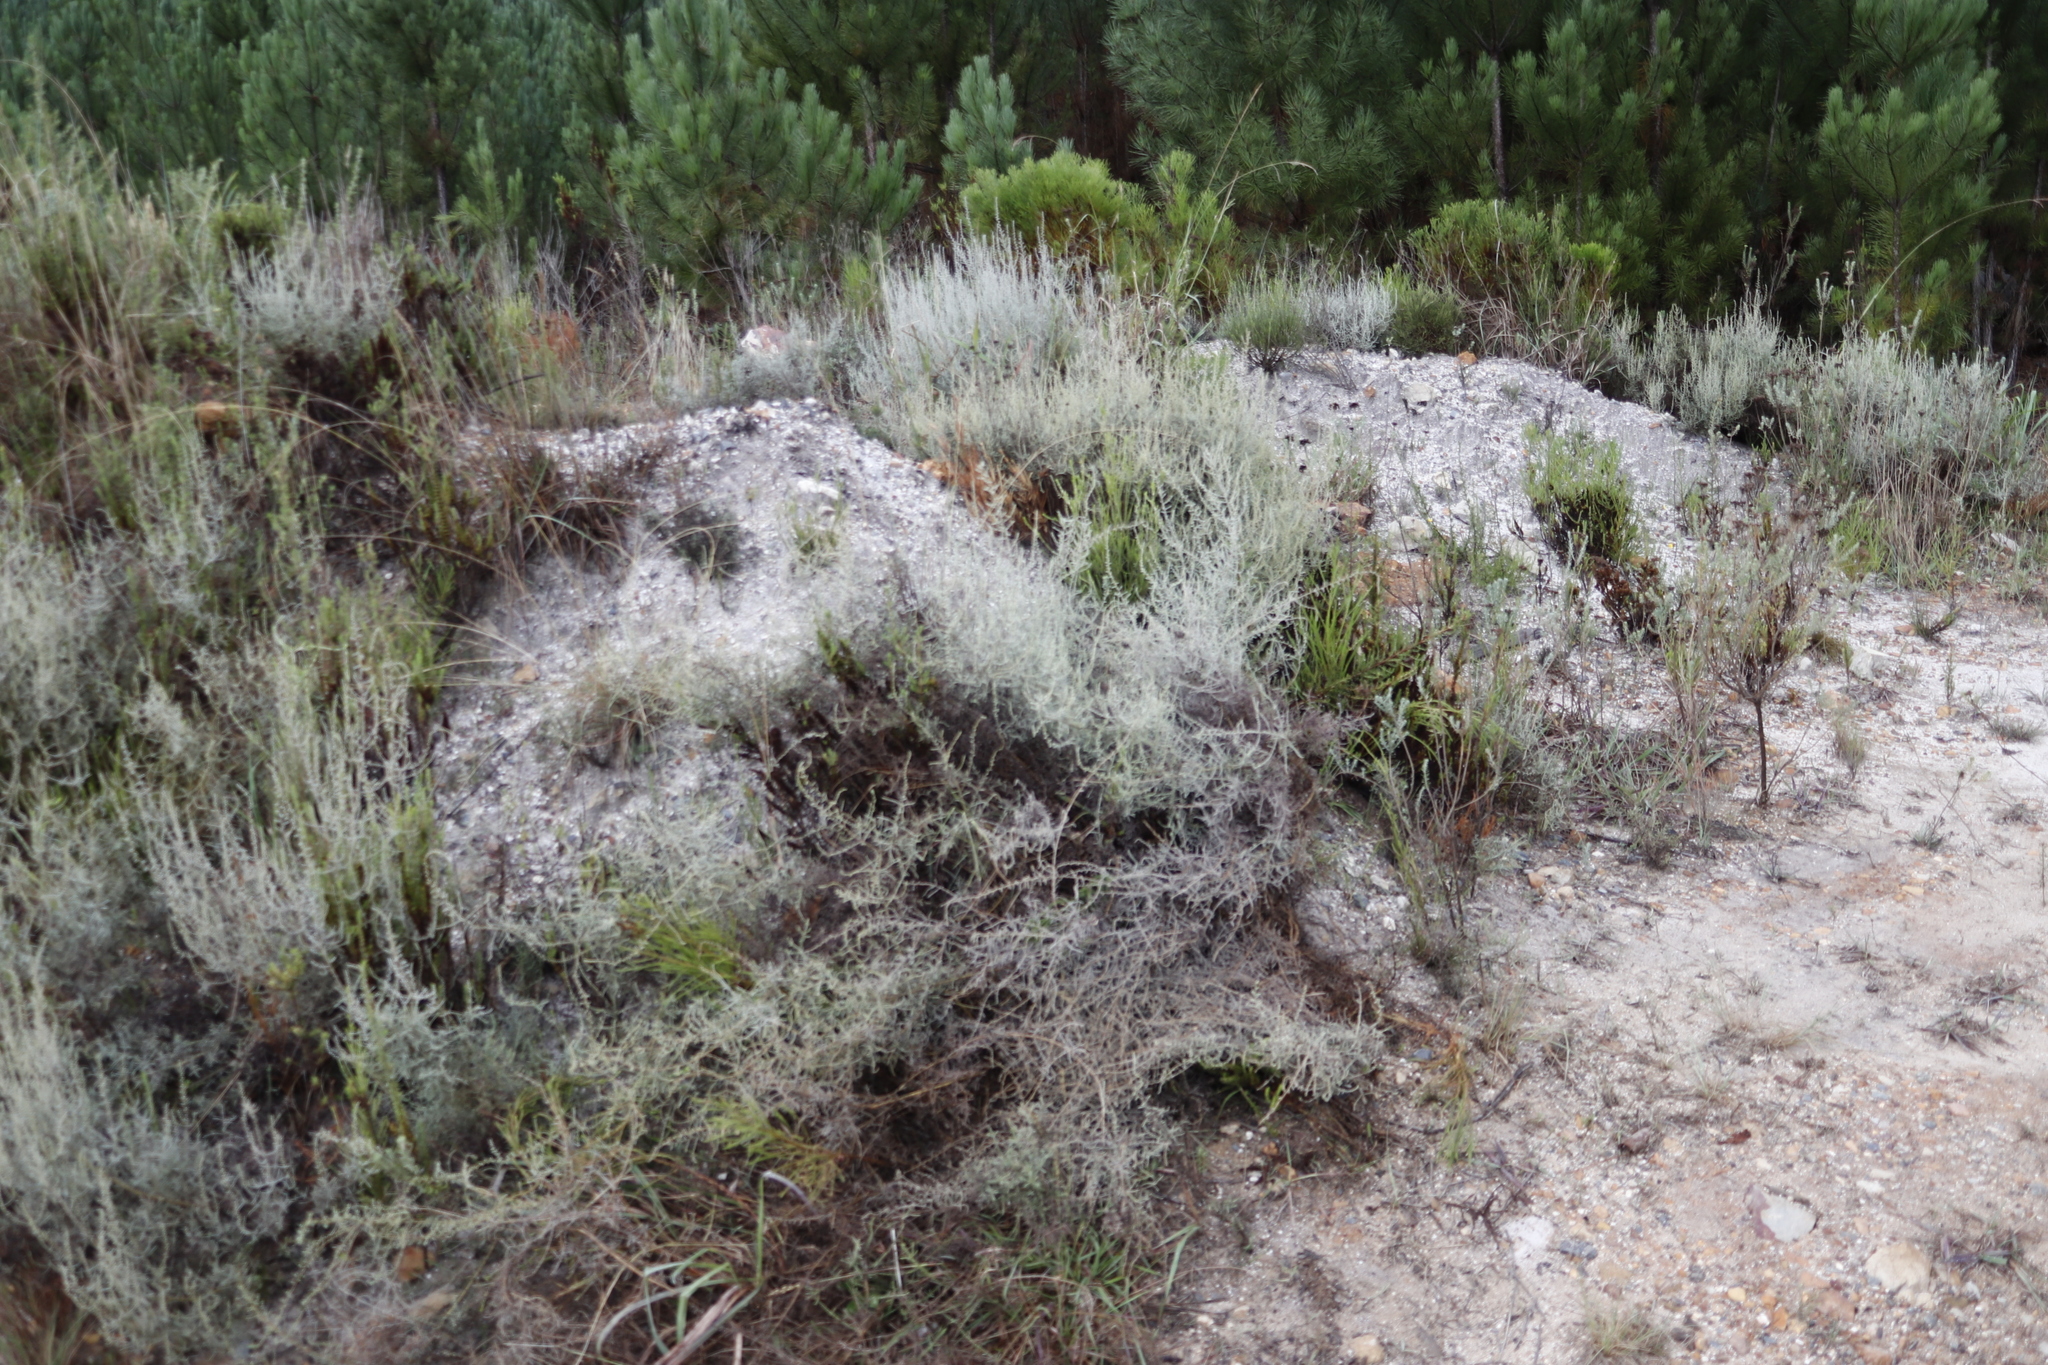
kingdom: Plantae
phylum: Tracheophyta
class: Magnoliopsida
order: Asterales
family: Asteraceae
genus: Seriphium
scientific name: Seriphium plumosum
